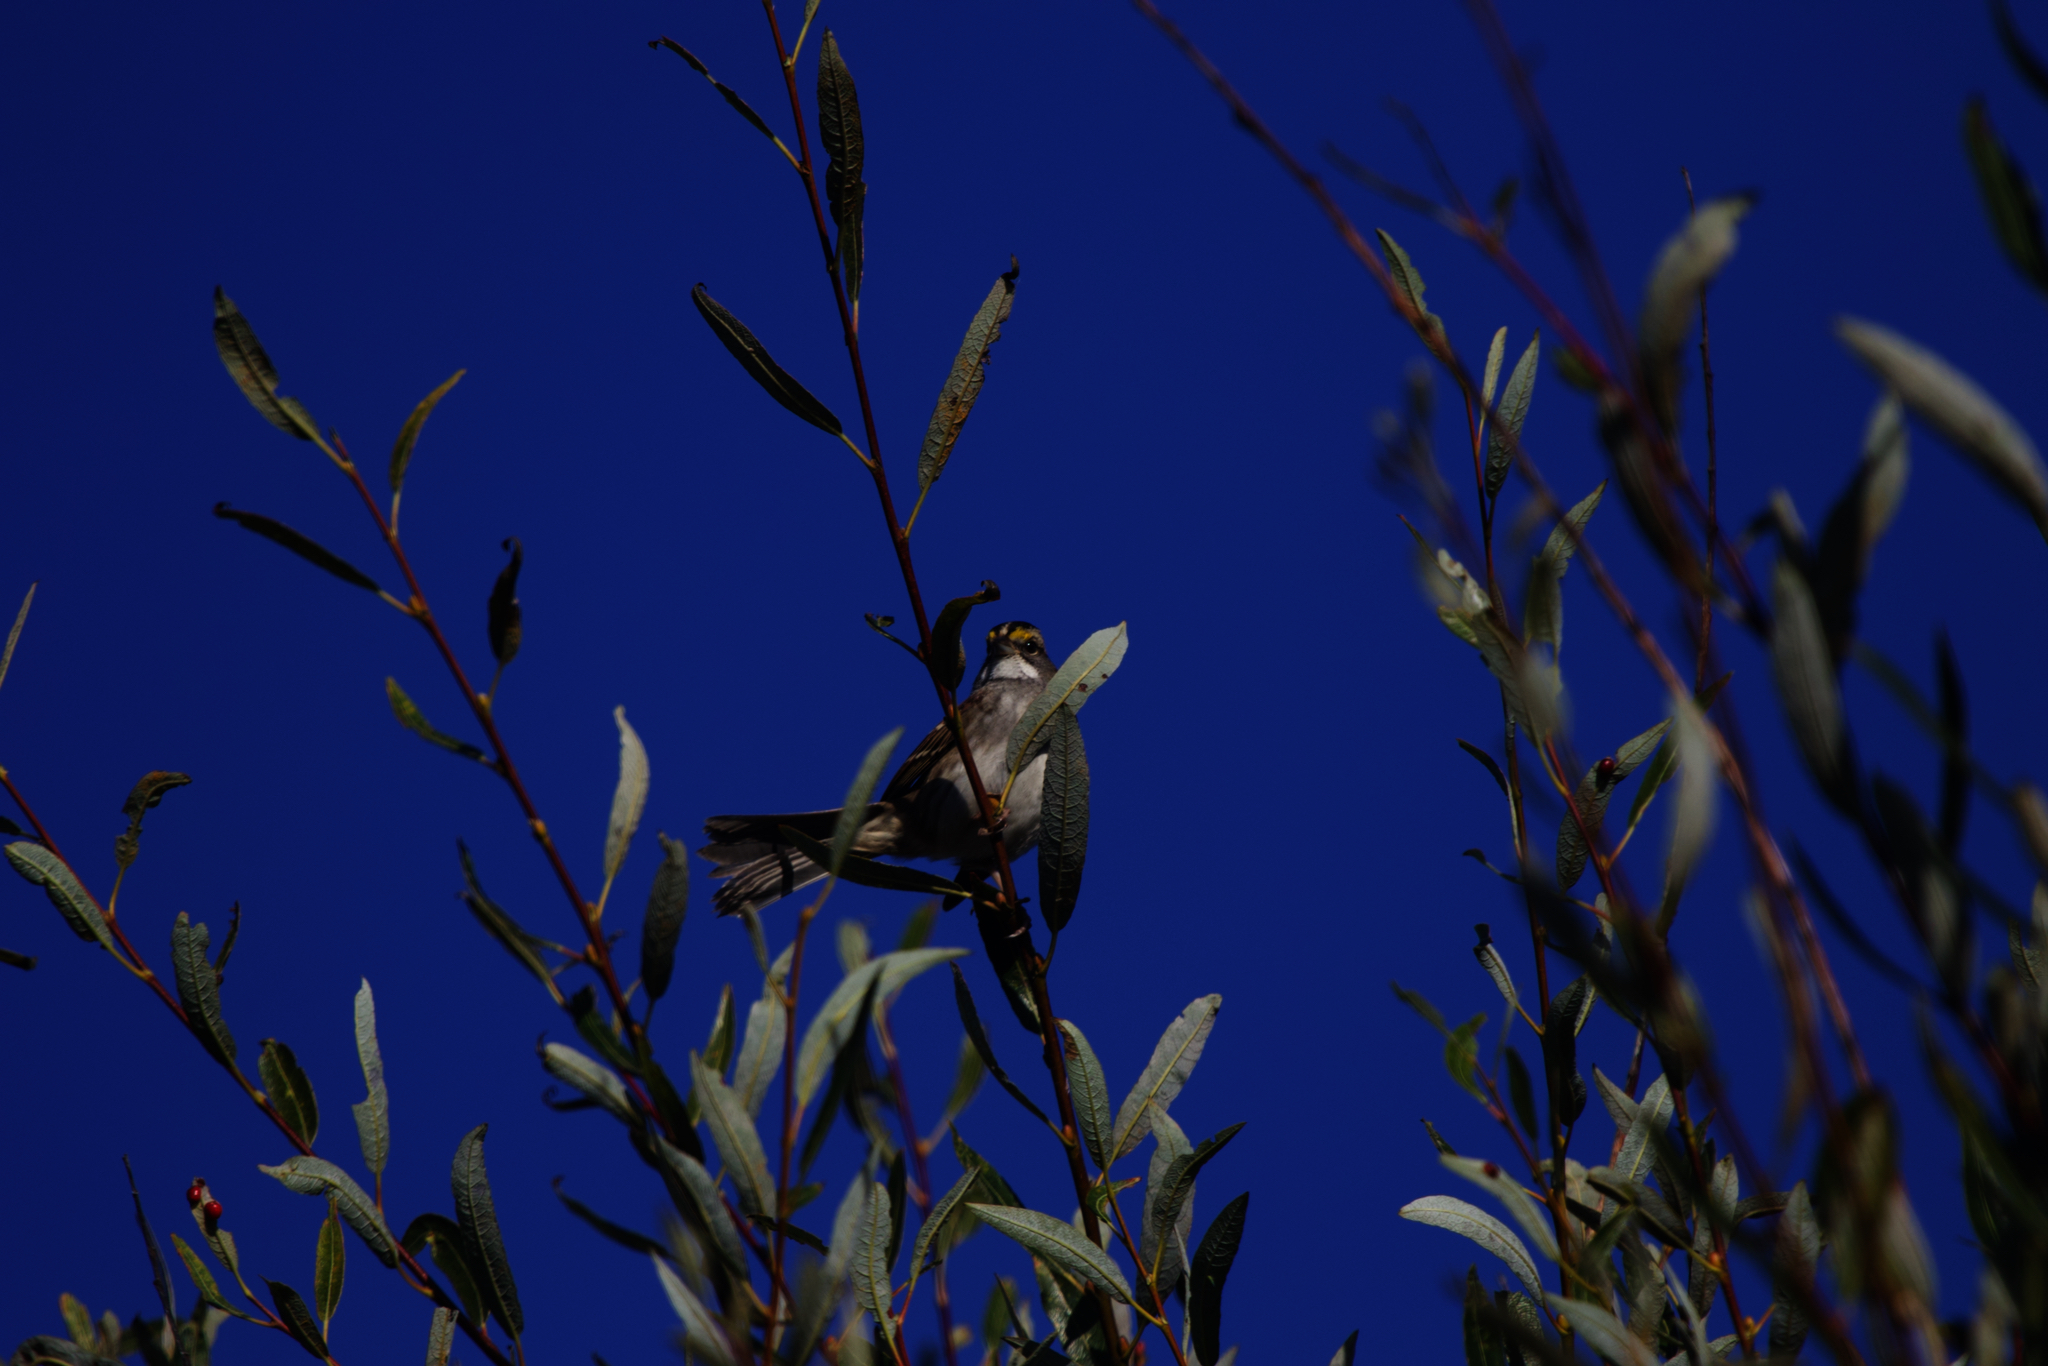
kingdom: Animalia
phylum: Chordata
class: Aves
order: Passeriformes
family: Passerellidae
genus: Zonotrichia
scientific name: Zonotrichia albicollis
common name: White-throated sparrow
